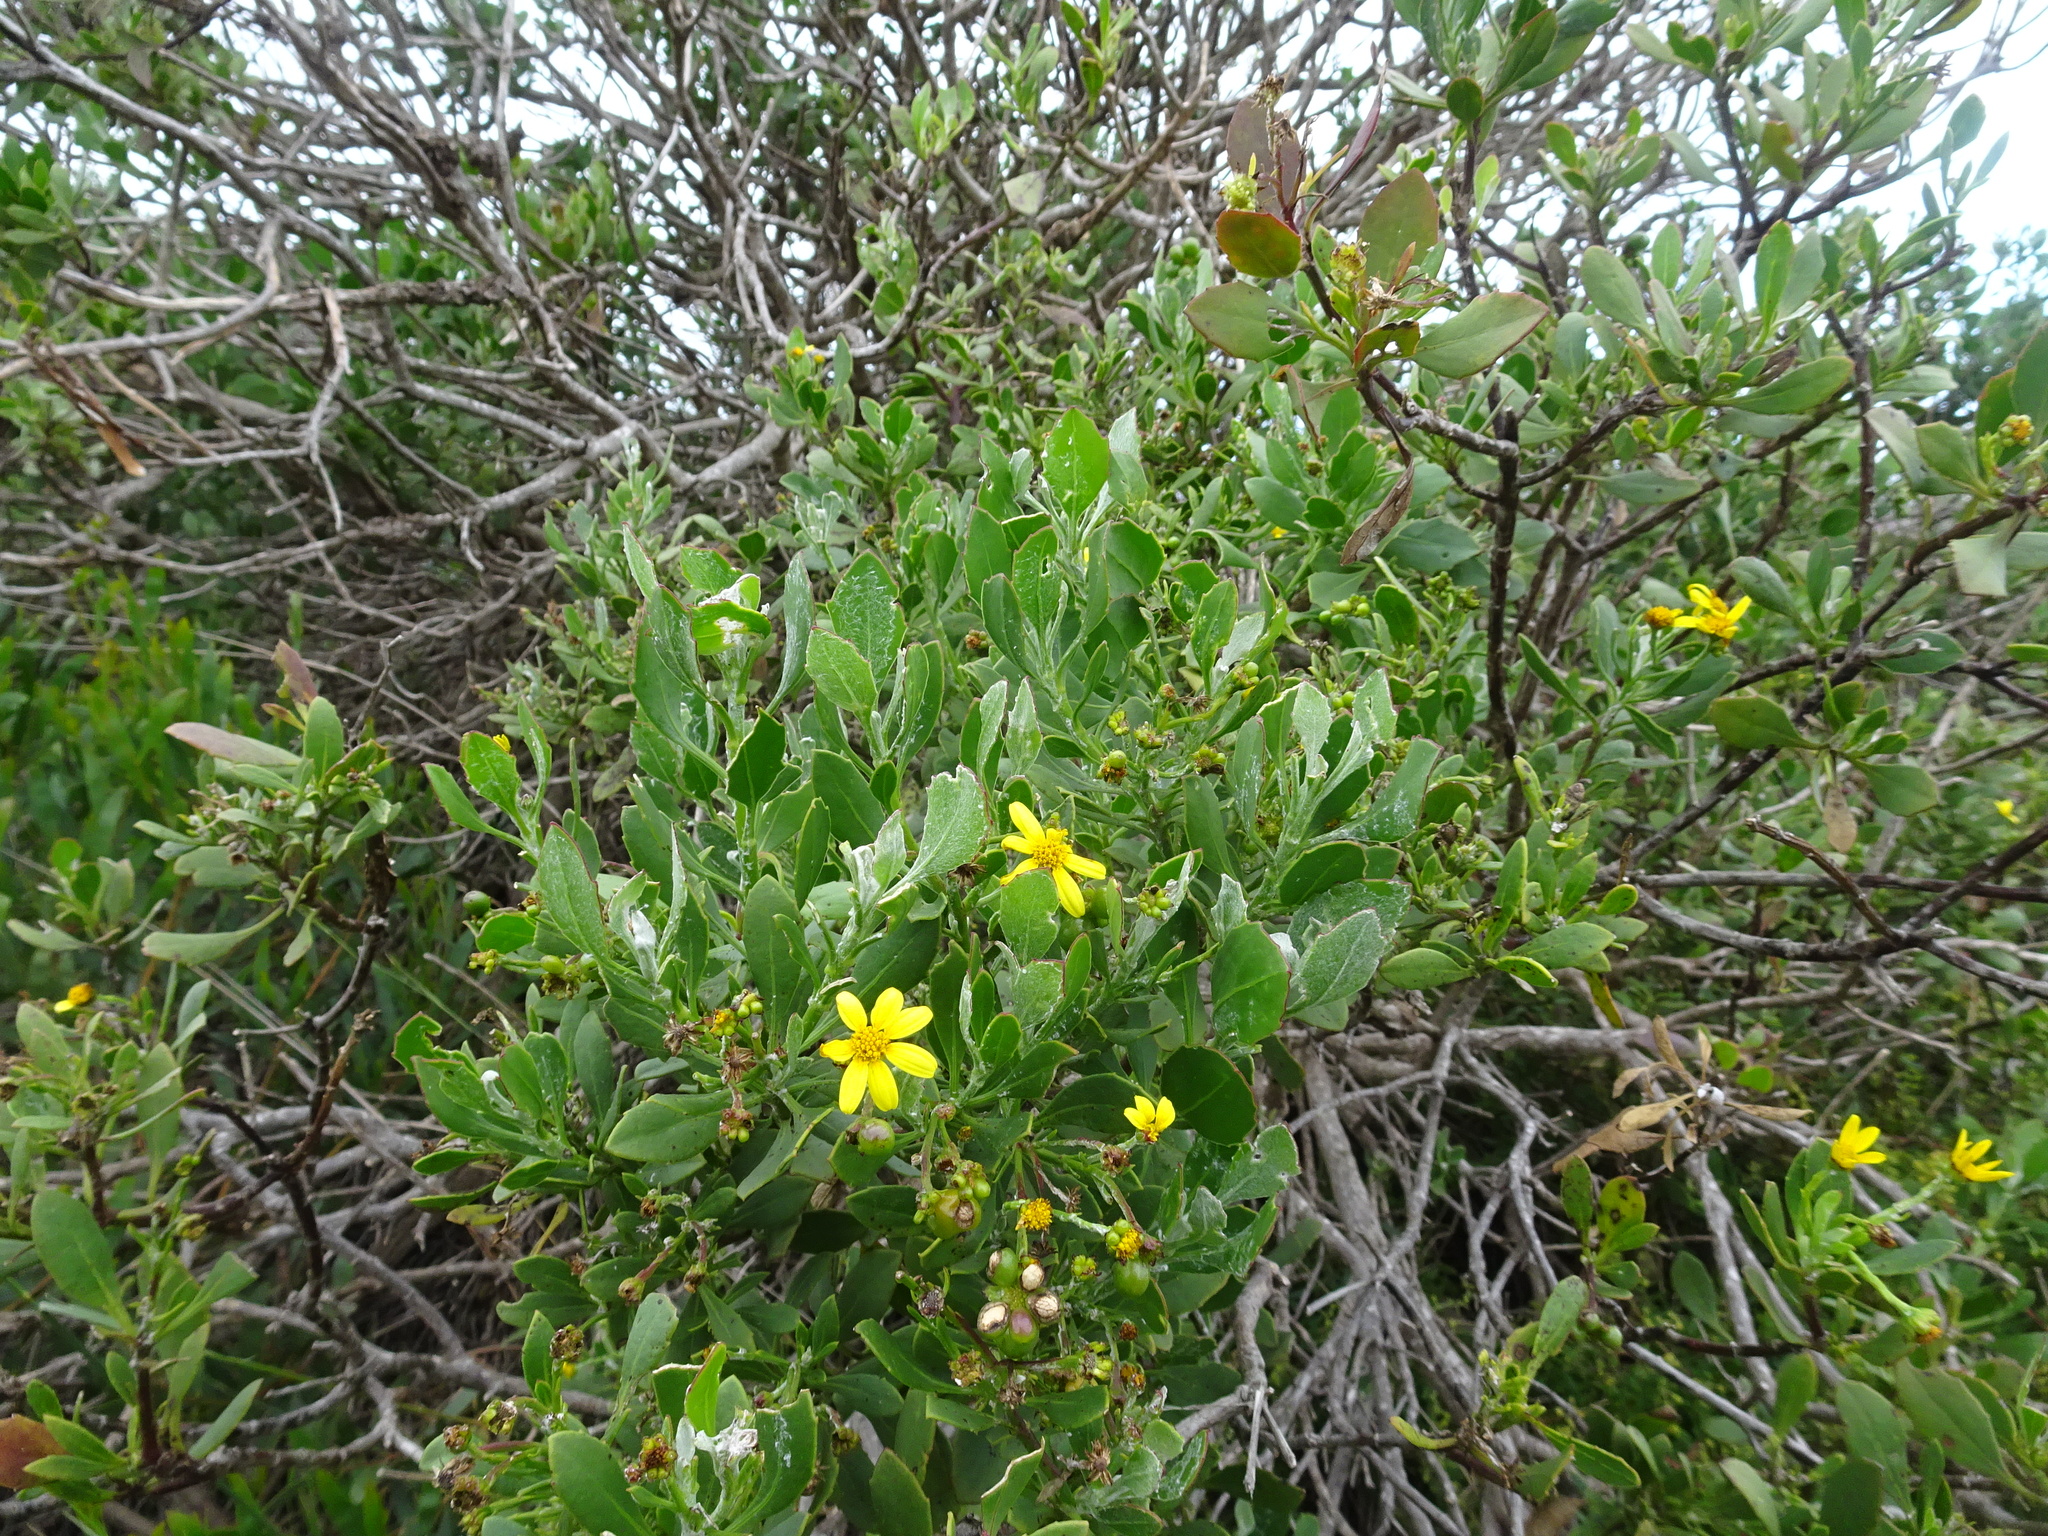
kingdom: Plantae
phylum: Tracheophyta
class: Magnoliopsida
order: Asterales
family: Asteraceae
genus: Osteospermum
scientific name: Osteospermum moniliferum
